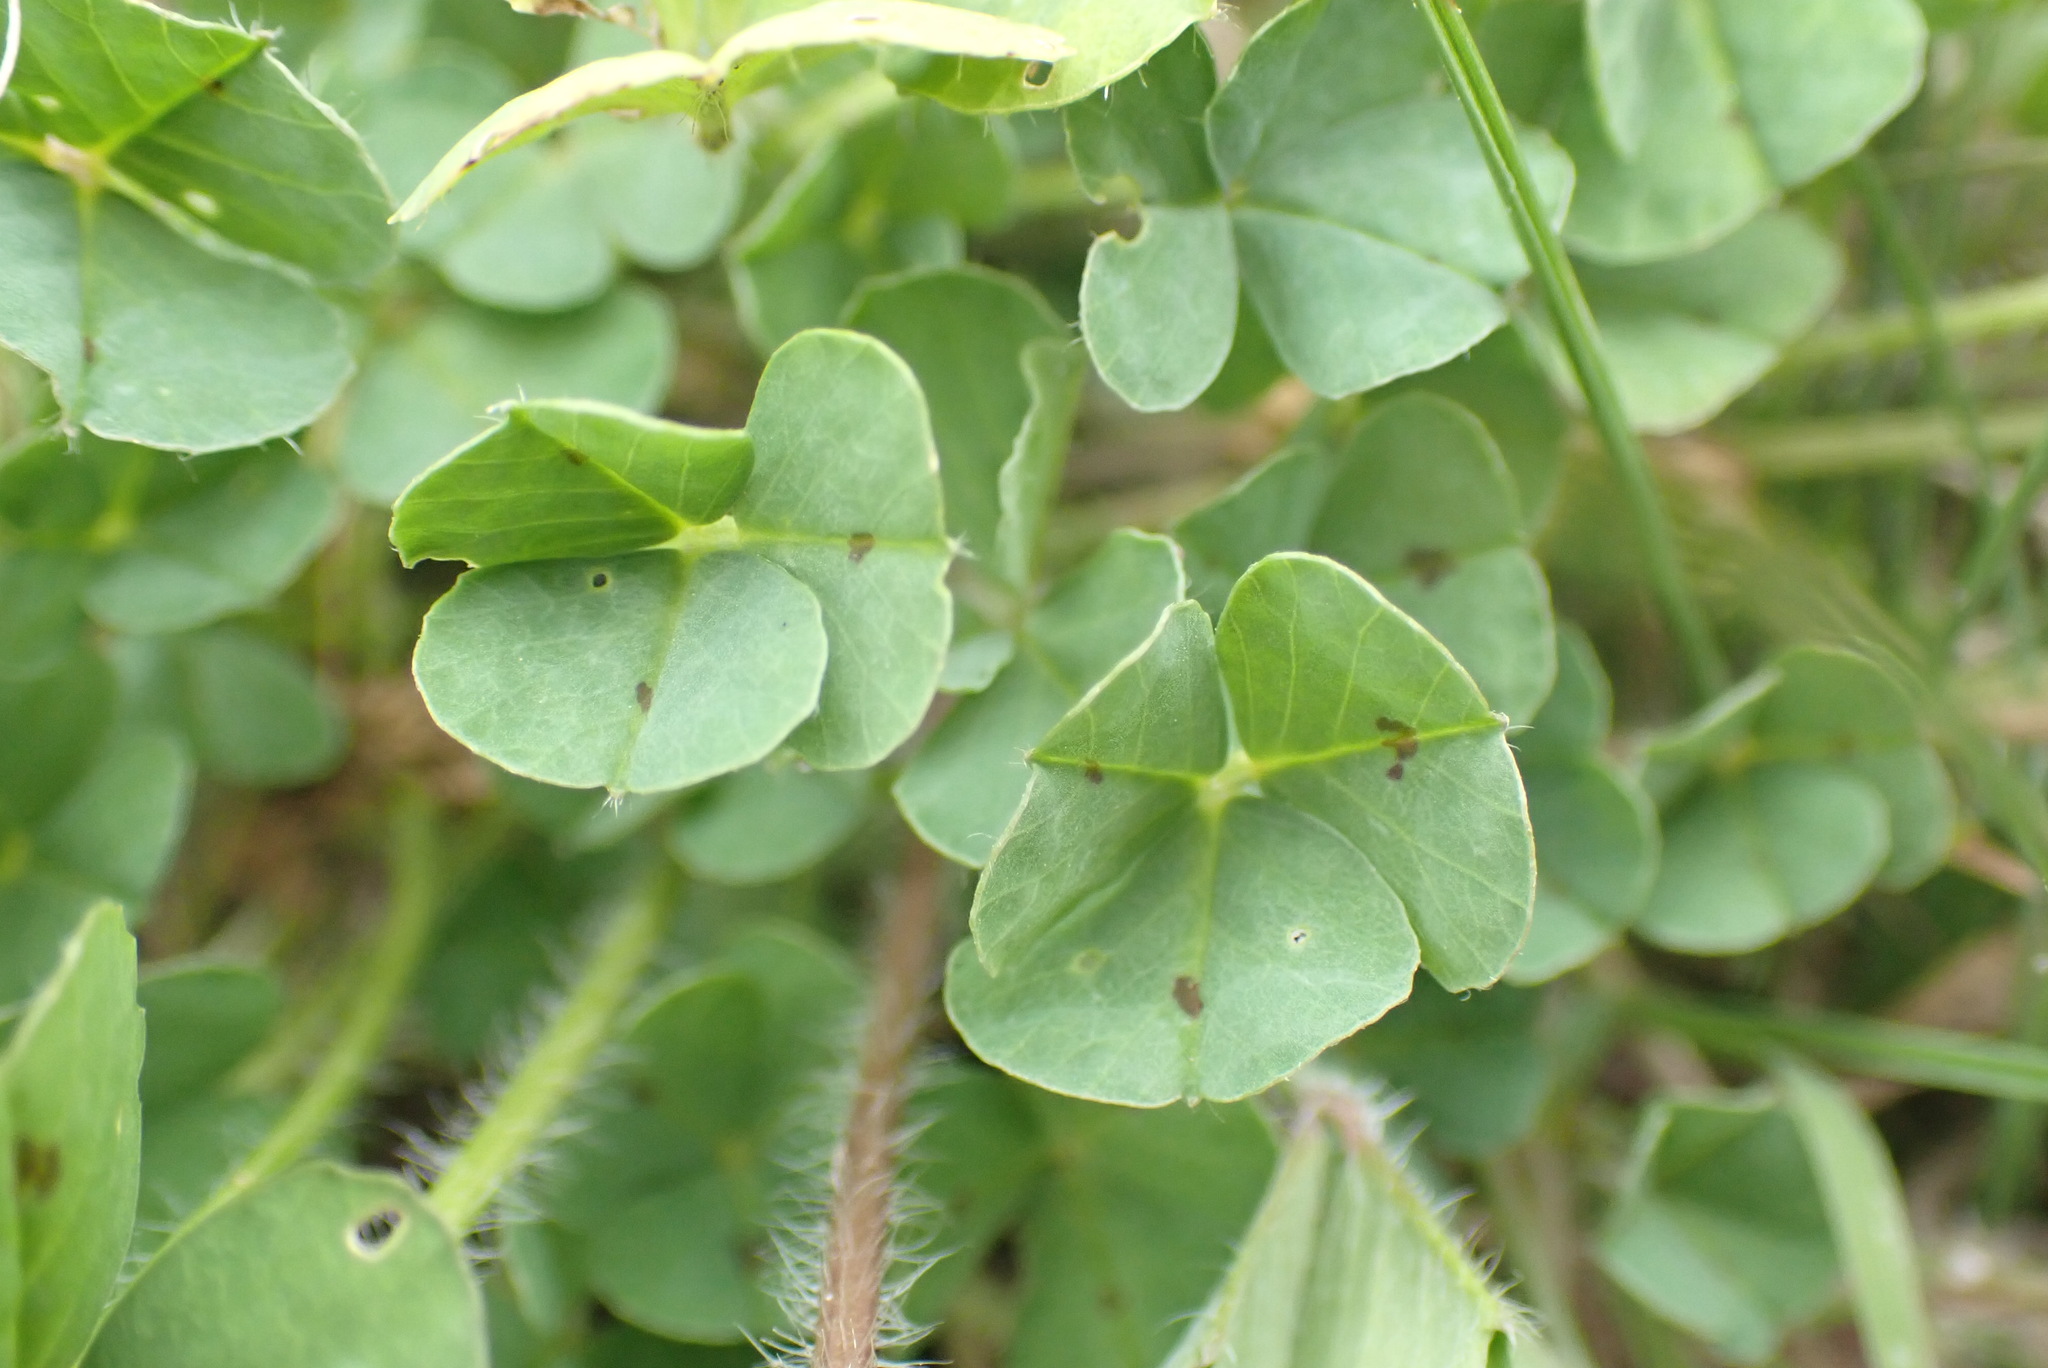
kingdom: Plantae
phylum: Tracheophyta
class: Magnoliopsida
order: Fabales
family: Fabaceae
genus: Medicago
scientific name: Medicago arabica
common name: Spotted medick
